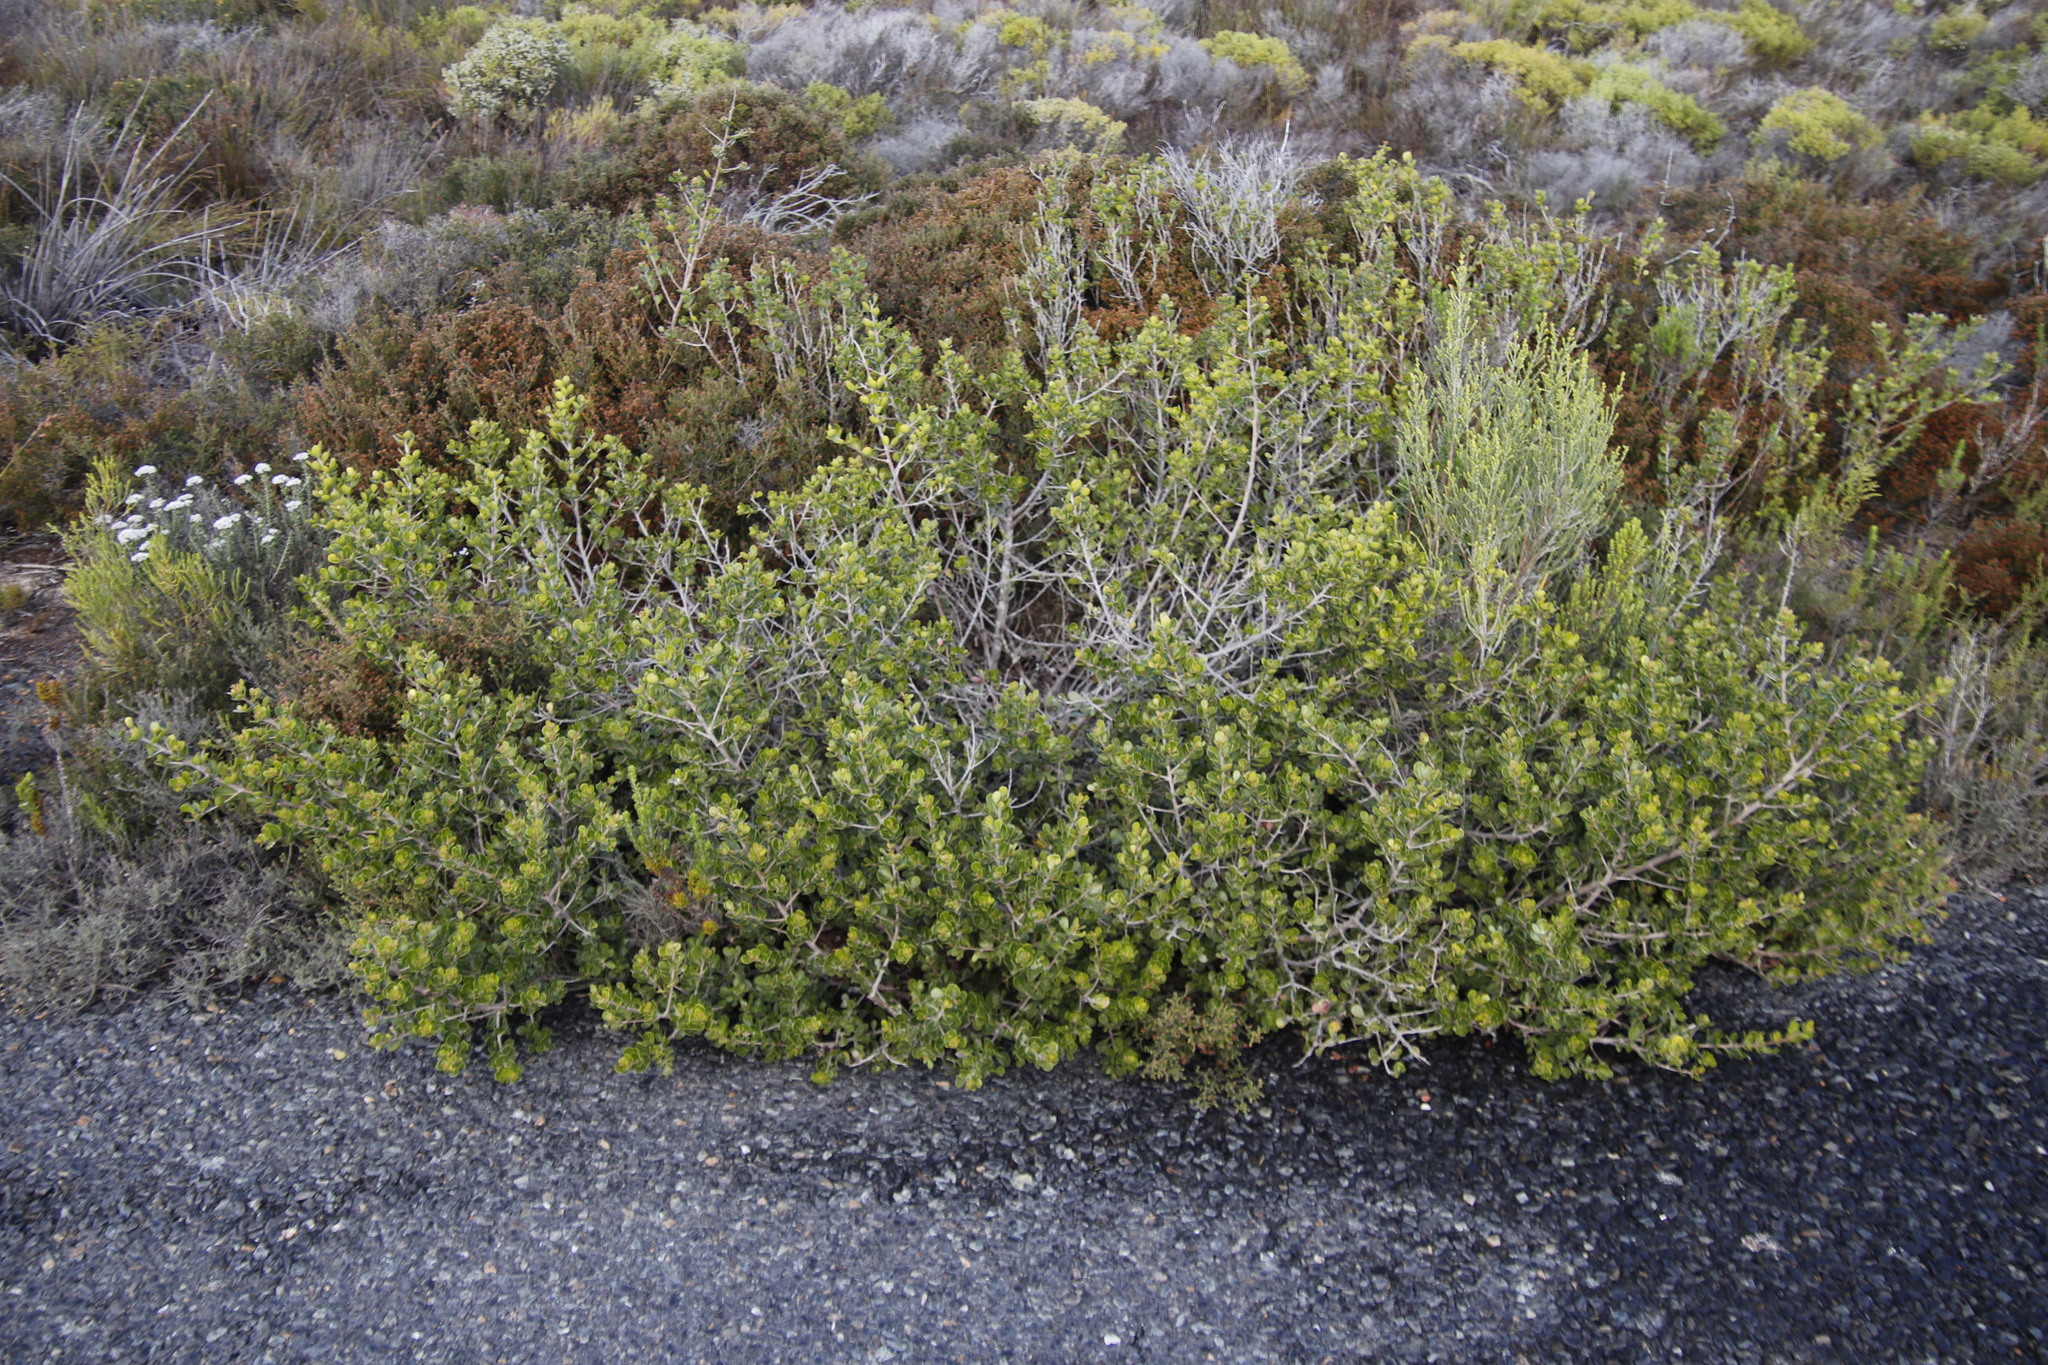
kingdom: Plantae
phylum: Tracheophyta
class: Magnoliopsida
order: Sapindales
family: Anacardiaceae
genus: Searsia
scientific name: Searsia lucida
